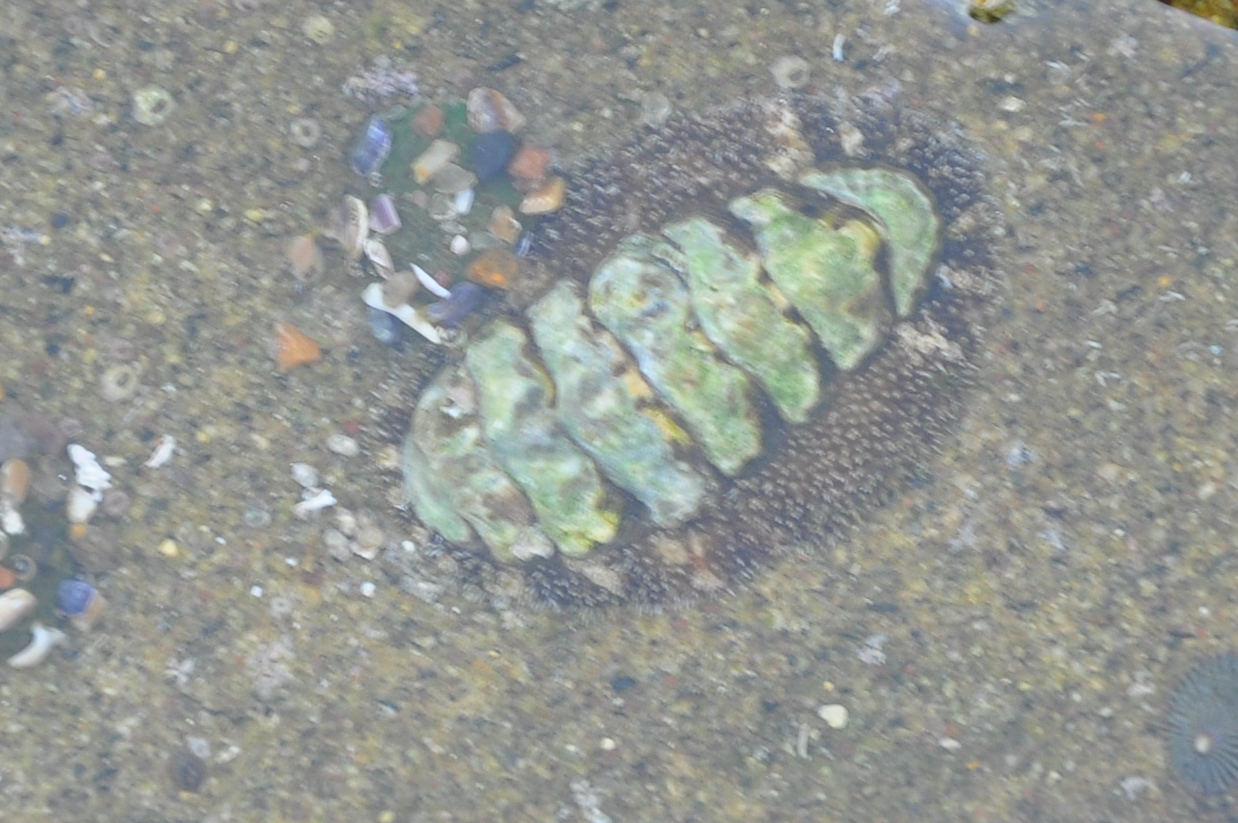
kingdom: Animalia
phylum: Mollusca
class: Polyplacophora
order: Chitonida
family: Tonicellidae
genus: Nuttallina
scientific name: Nuttallina californica
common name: California nuttall chiton
